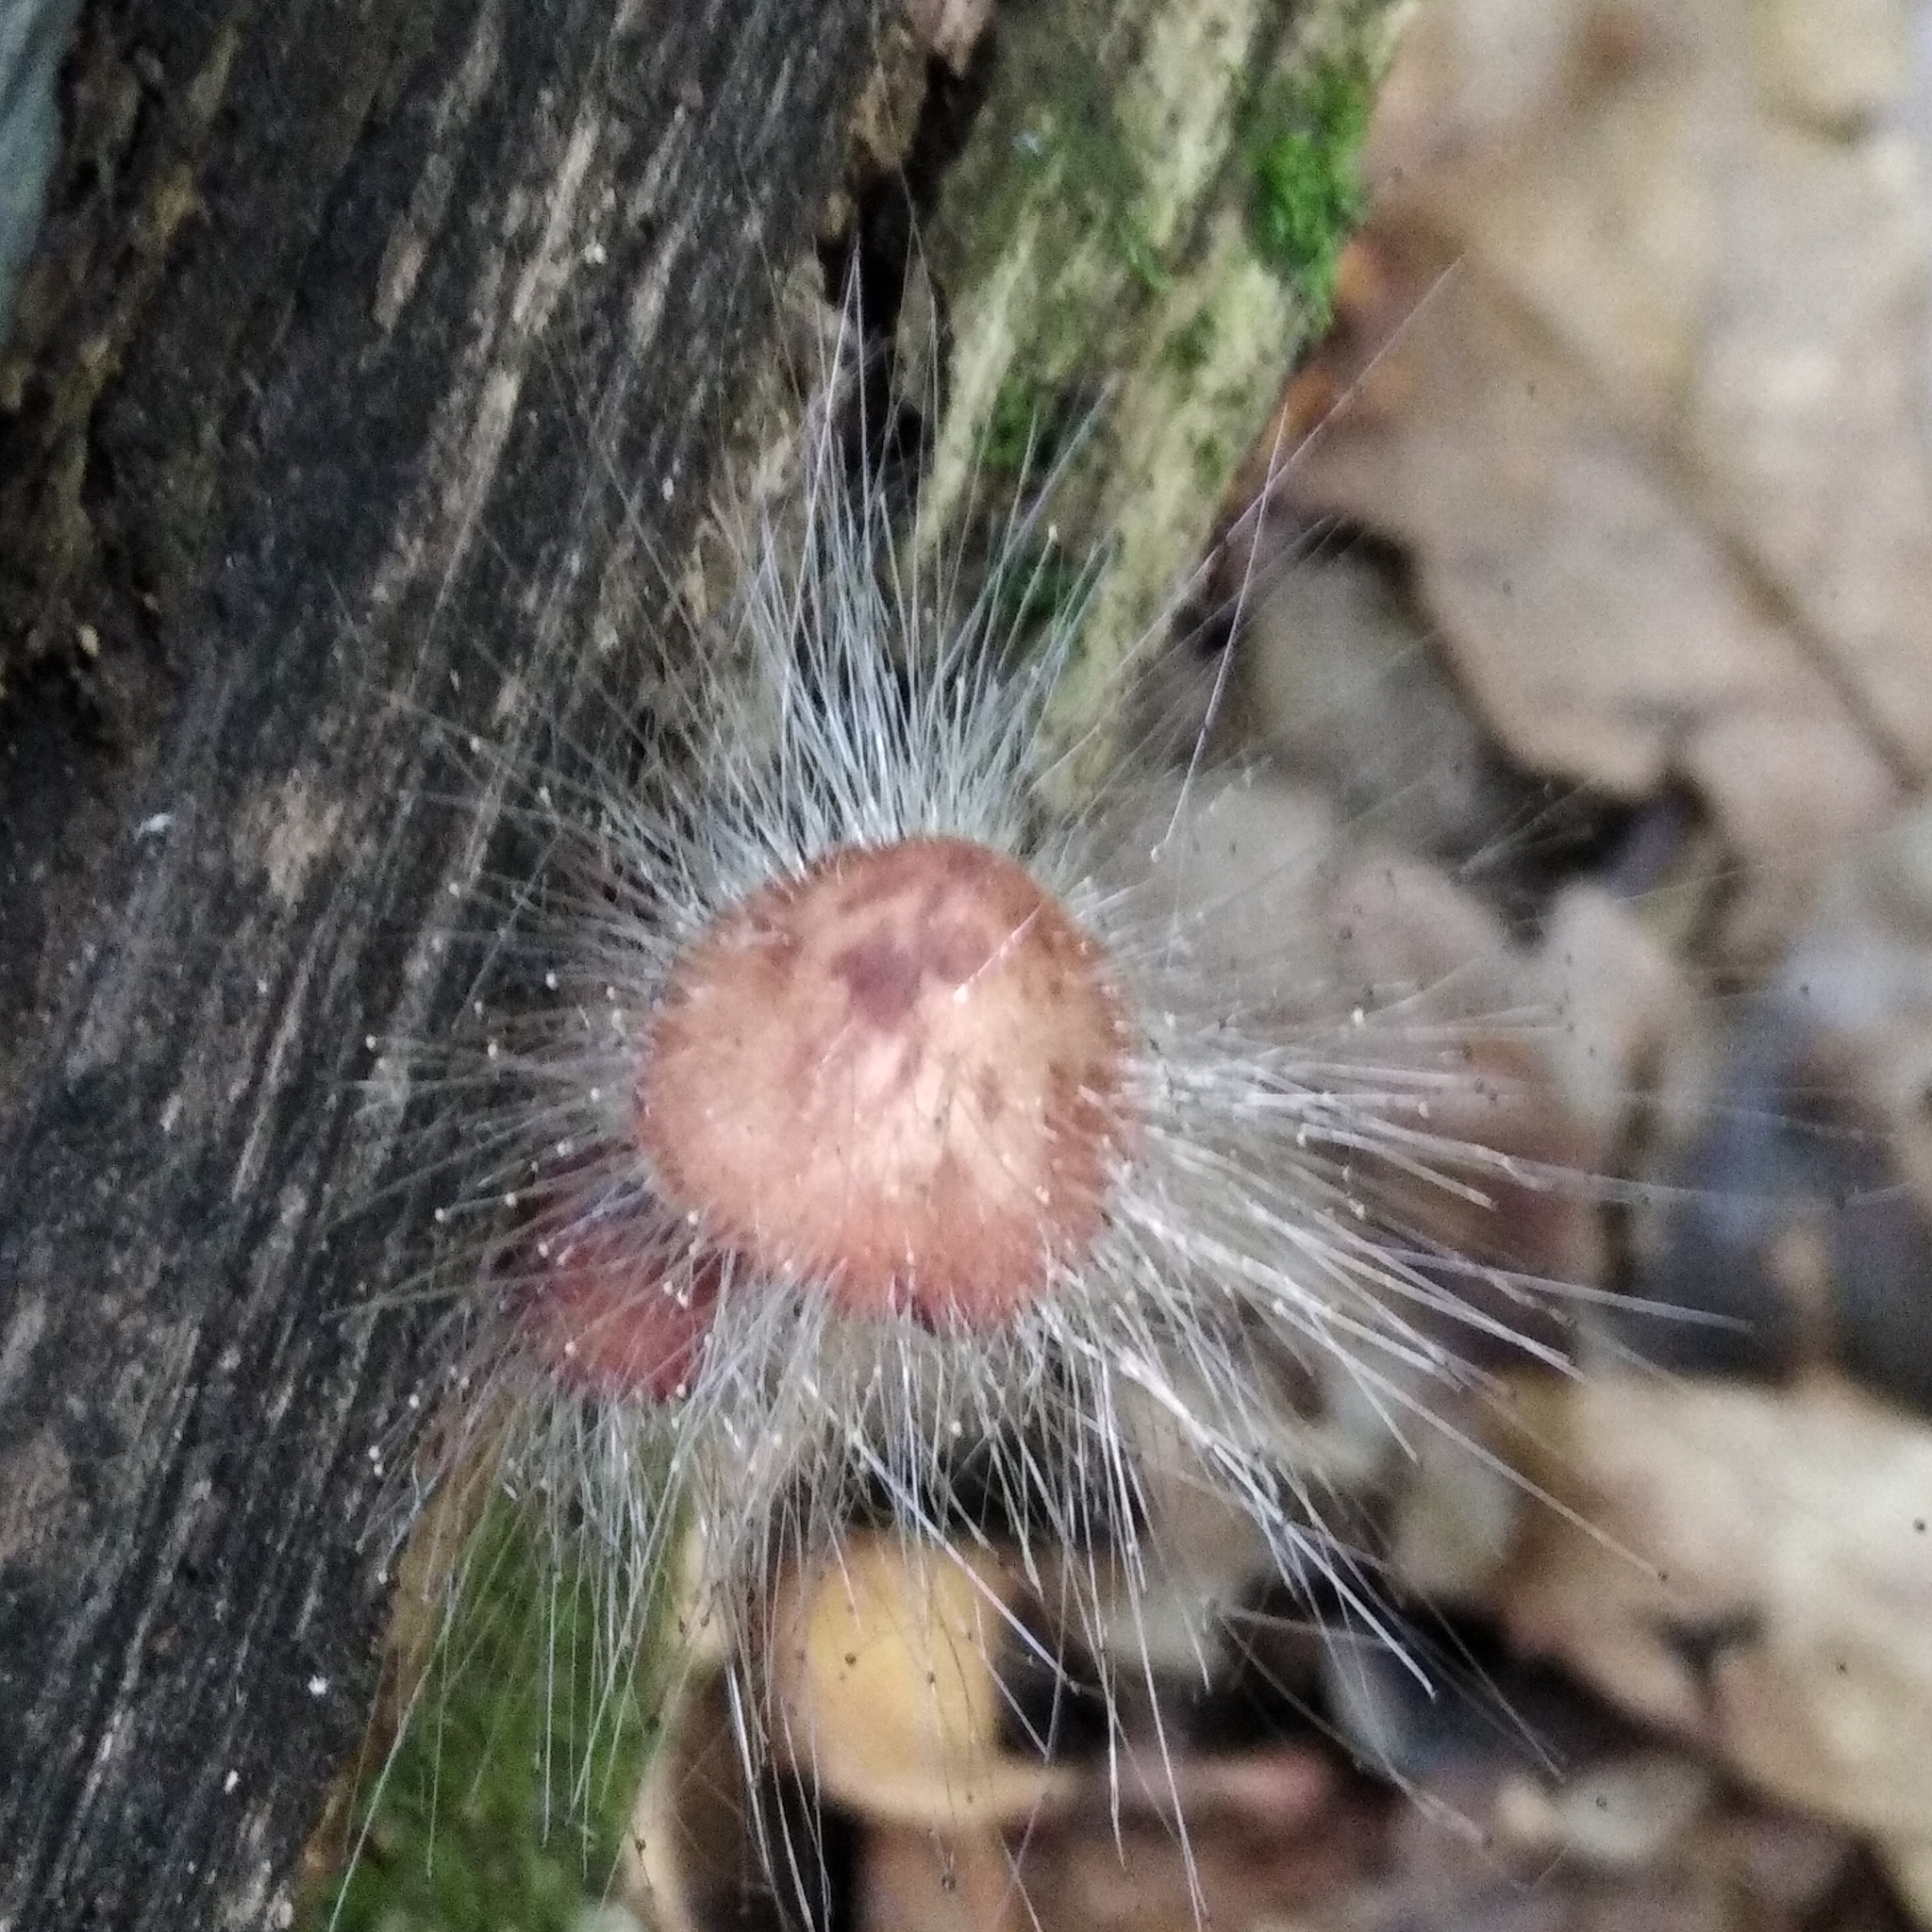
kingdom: Fungi
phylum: Mucoromycota
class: Mucoromycetes
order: Mucorales
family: Phycomycetaceae
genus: Spinellus
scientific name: Spinellus fusiger
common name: Bonnet mould
